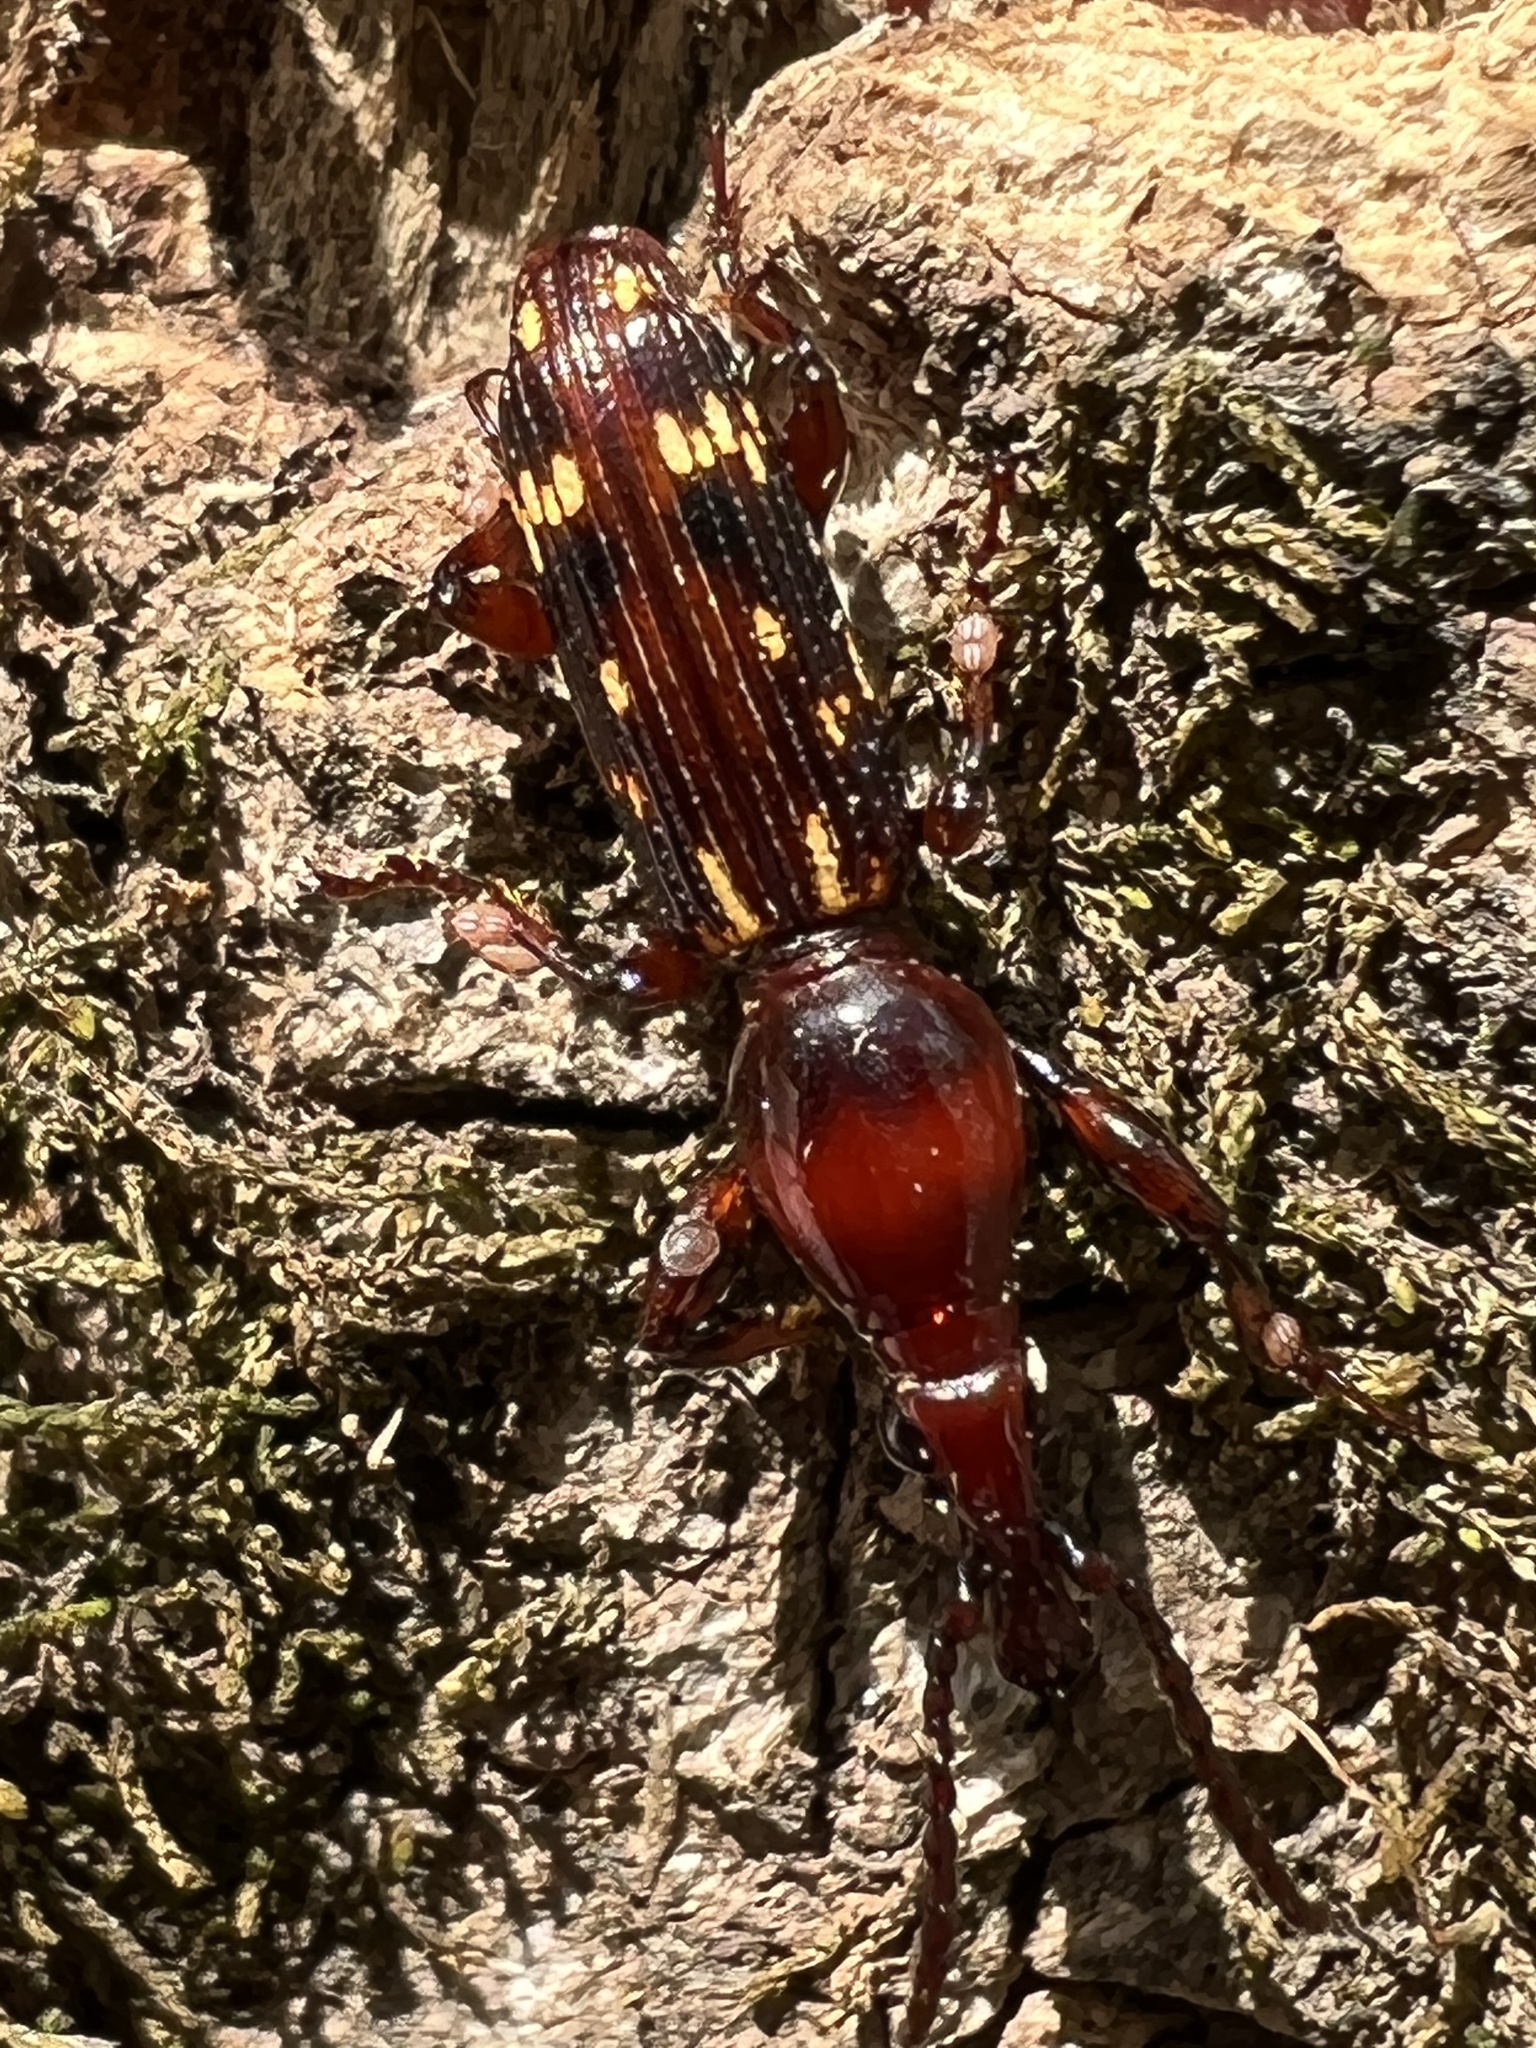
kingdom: Animalia
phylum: Arthropoda
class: Insecta
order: Coleoptera
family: Brentidae
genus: Arrenodes
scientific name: Arrenodes minutus
